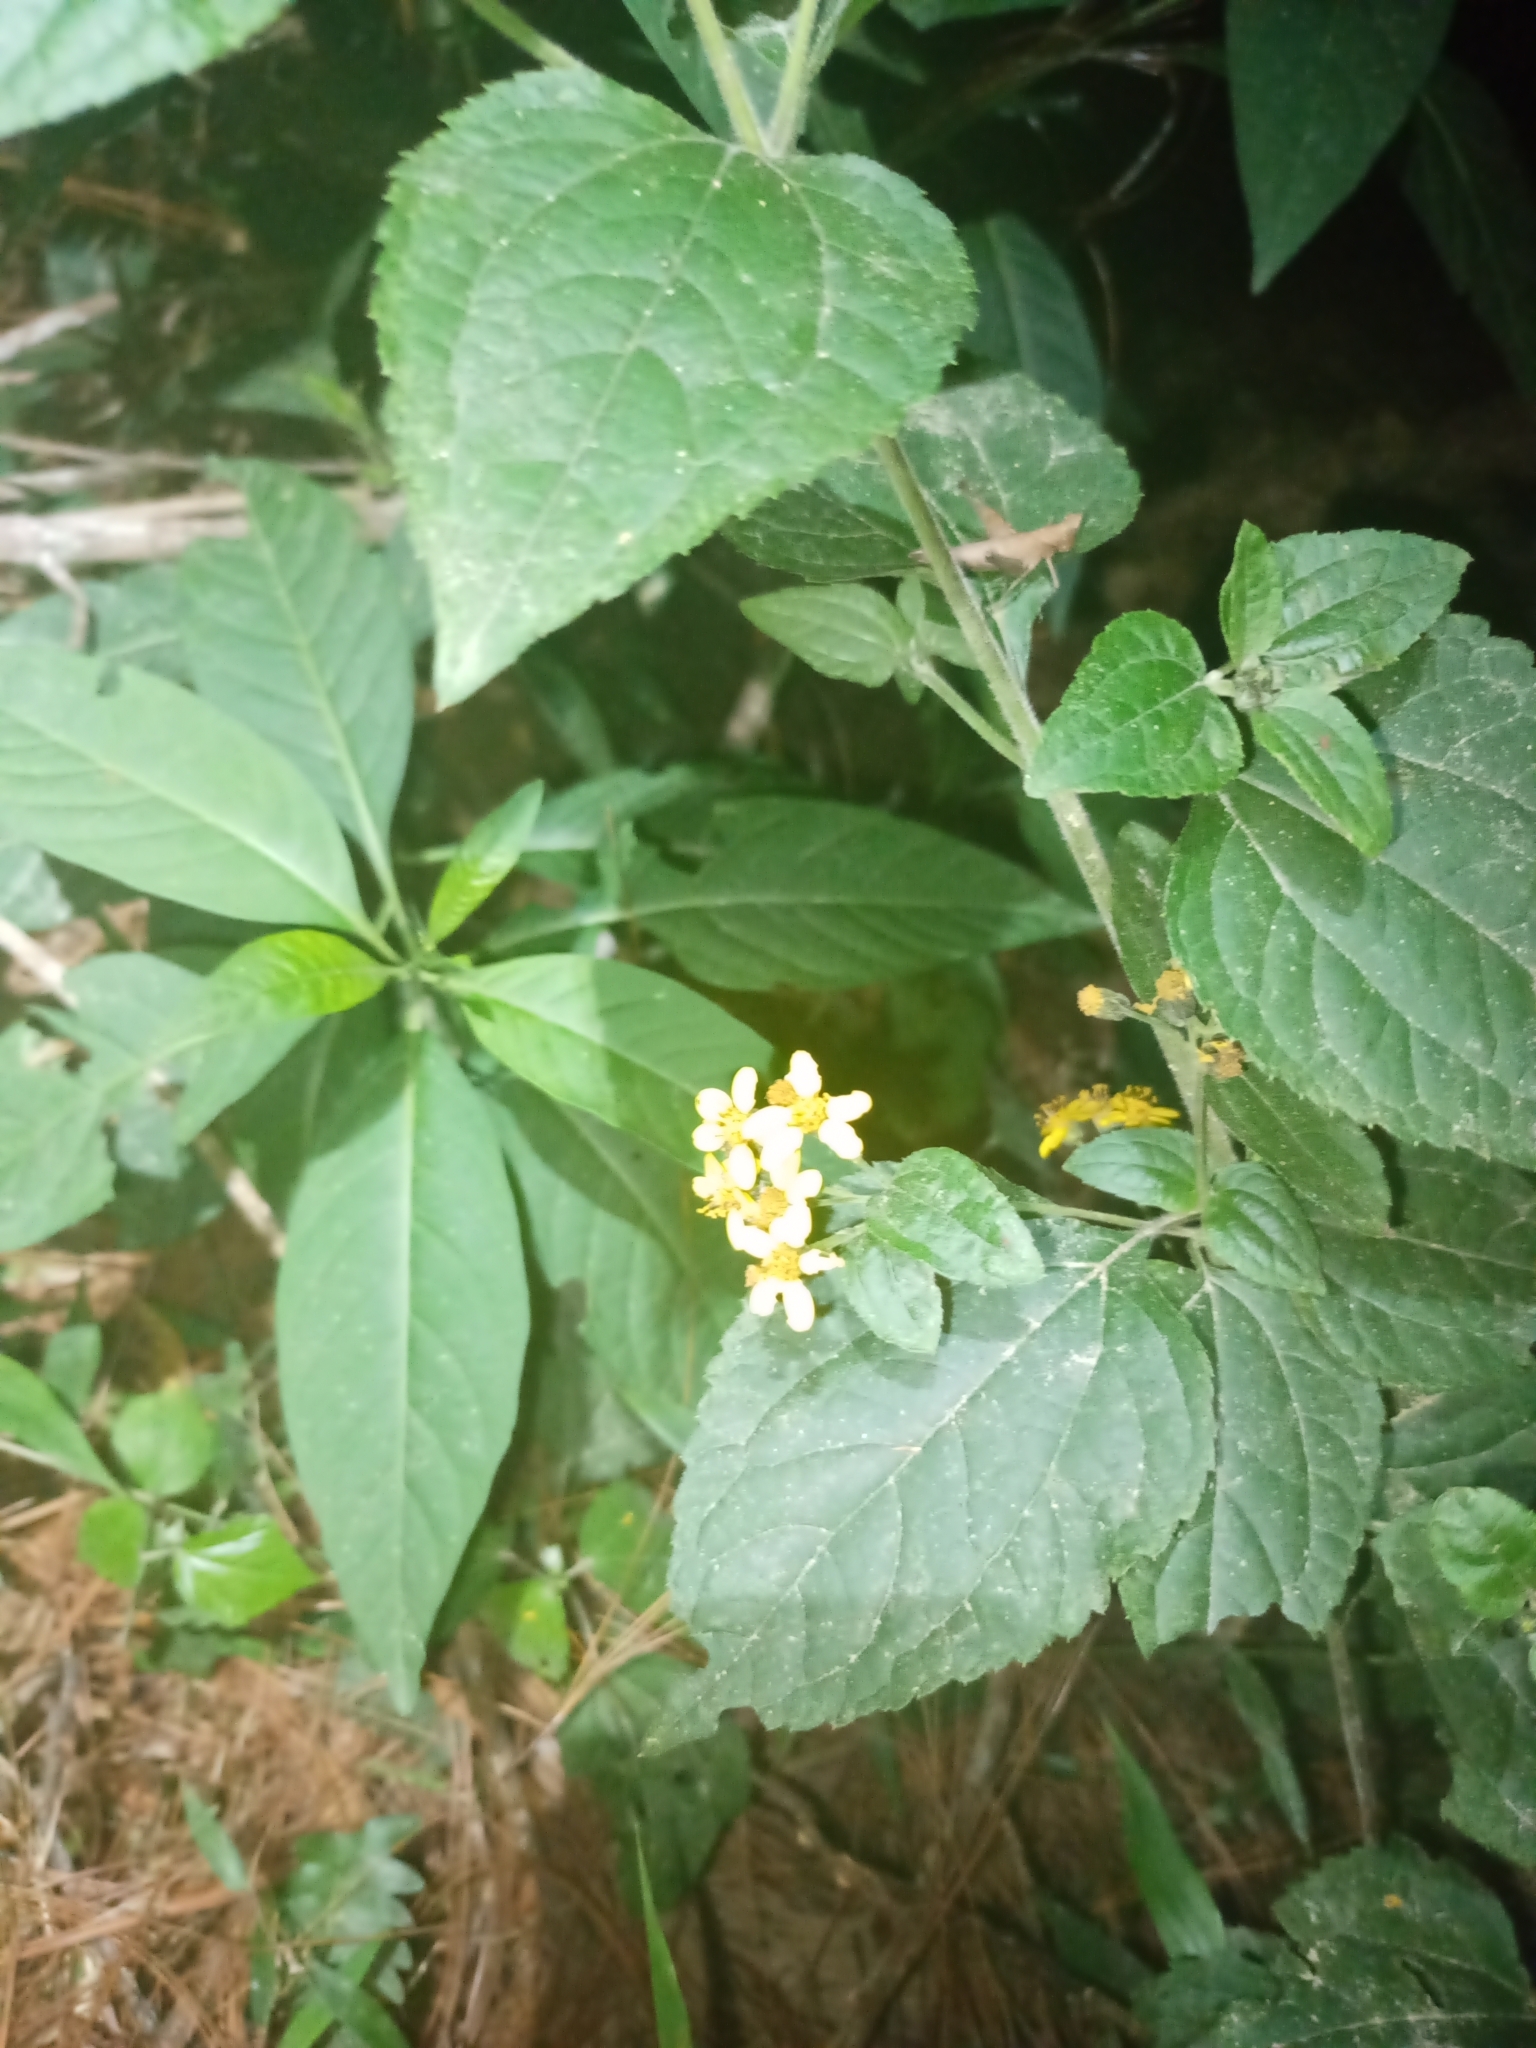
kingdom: Plantae
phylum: Tracheophyta
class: Magnoliopsida
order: Asterales
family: Asteraceae
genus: Calea
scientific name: Calea urticifolia
